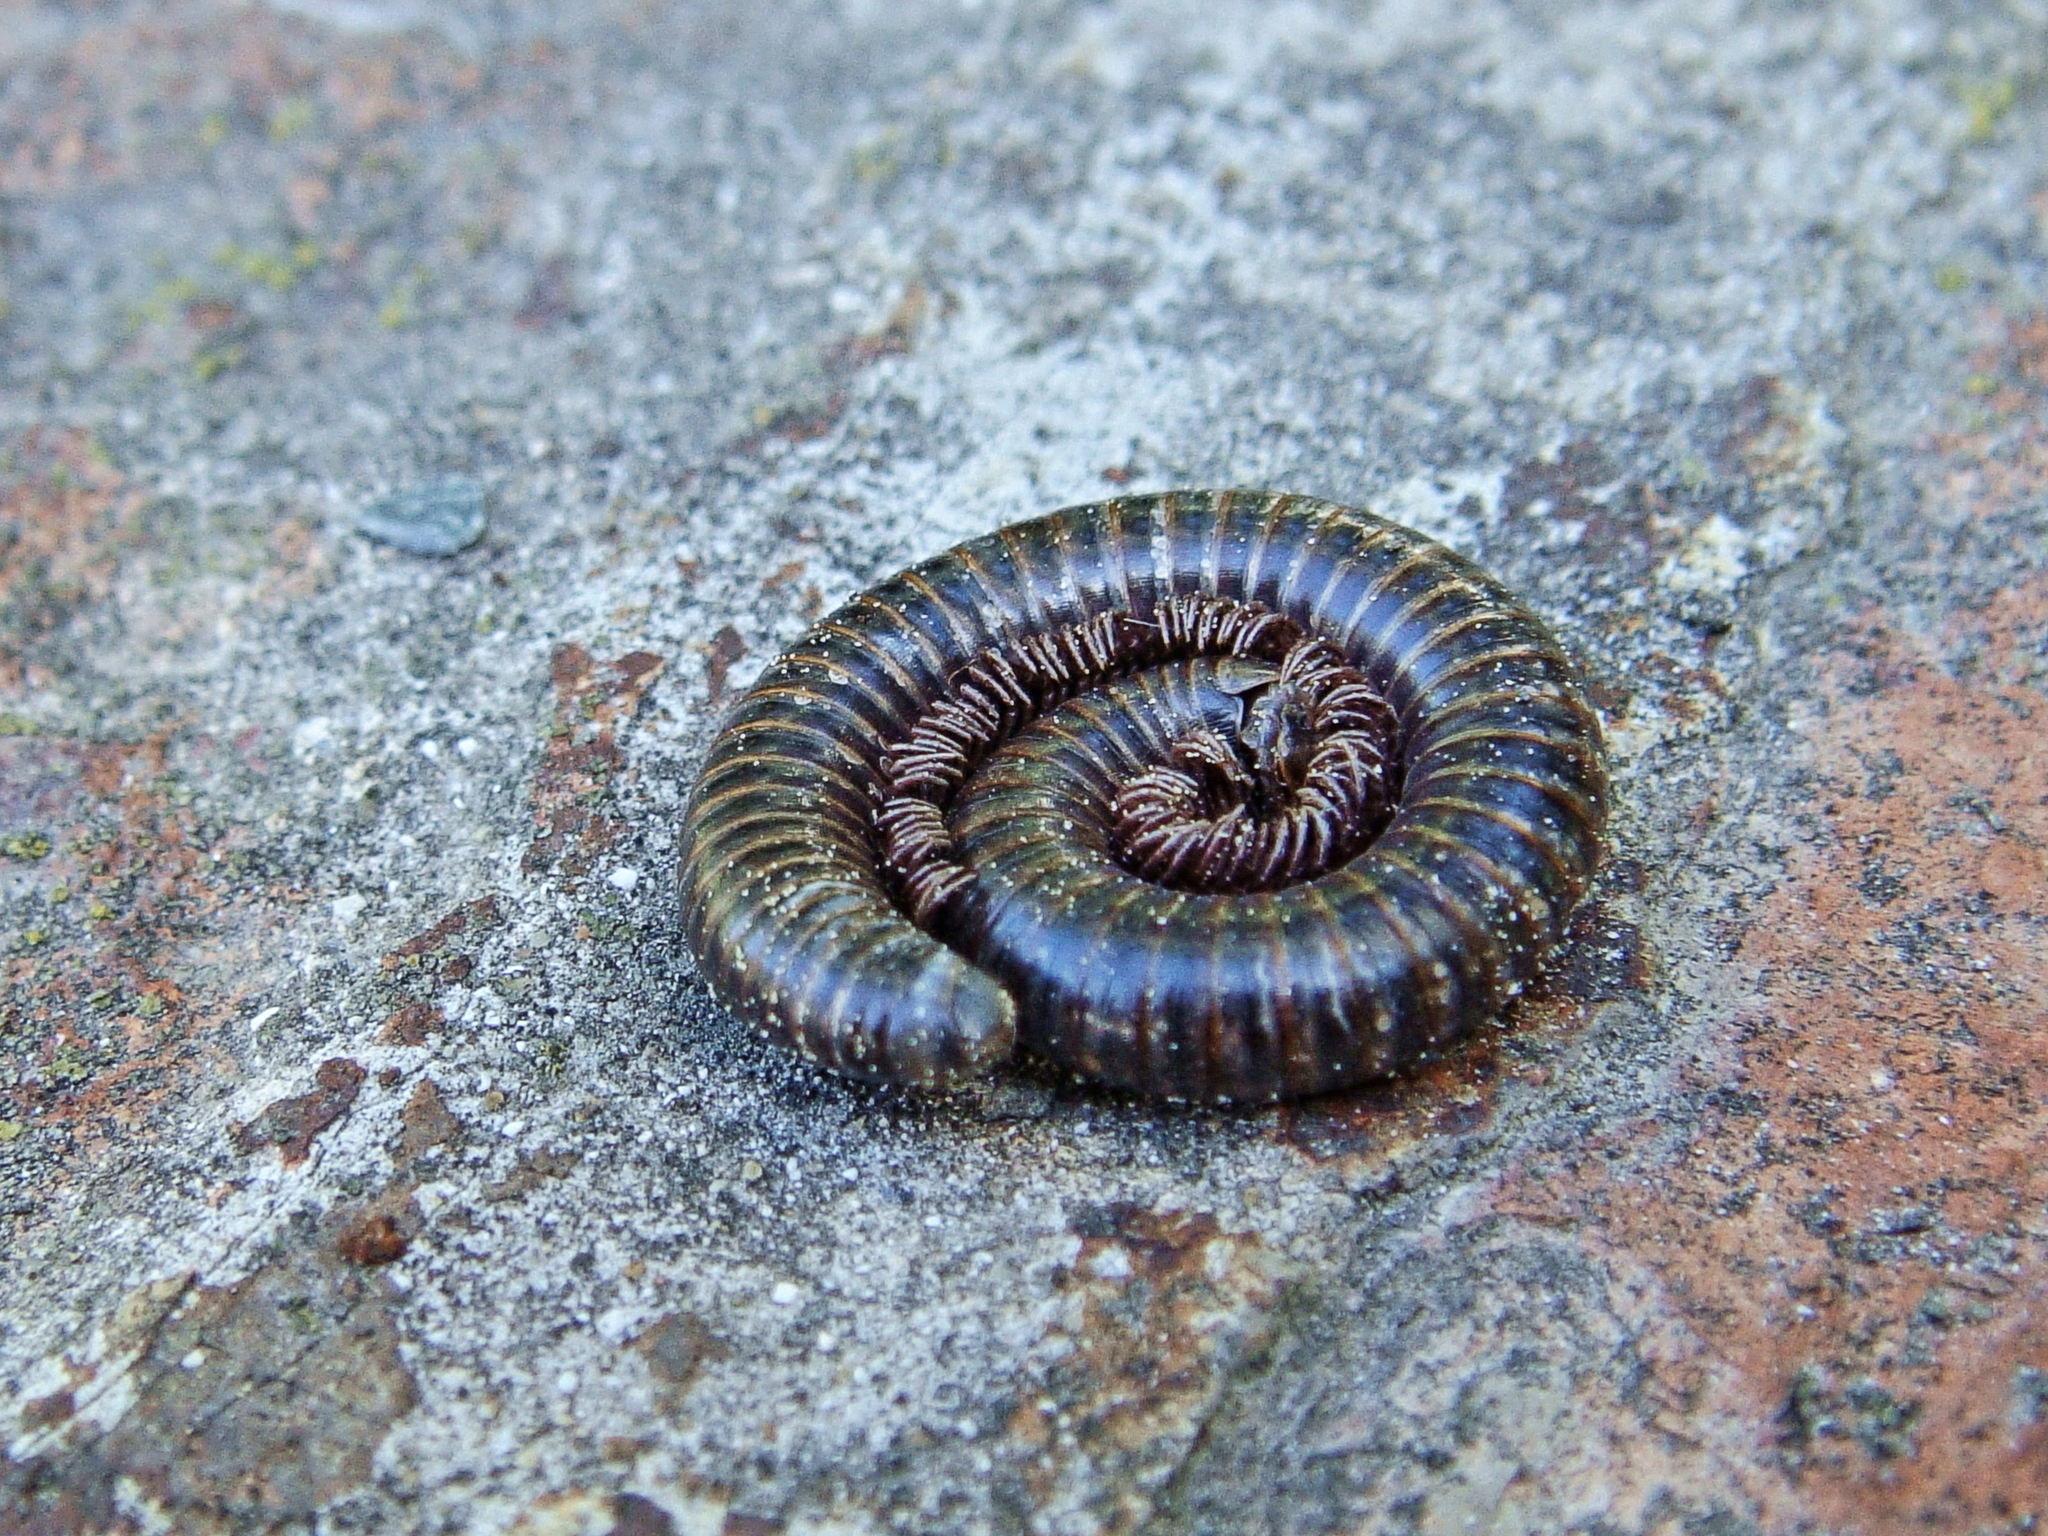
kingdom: Animalia
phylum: Arthropoda
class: Diplopoda
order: Julida
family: Julidae
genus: Pachyiulus
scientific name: Pachyiulus oenologus
